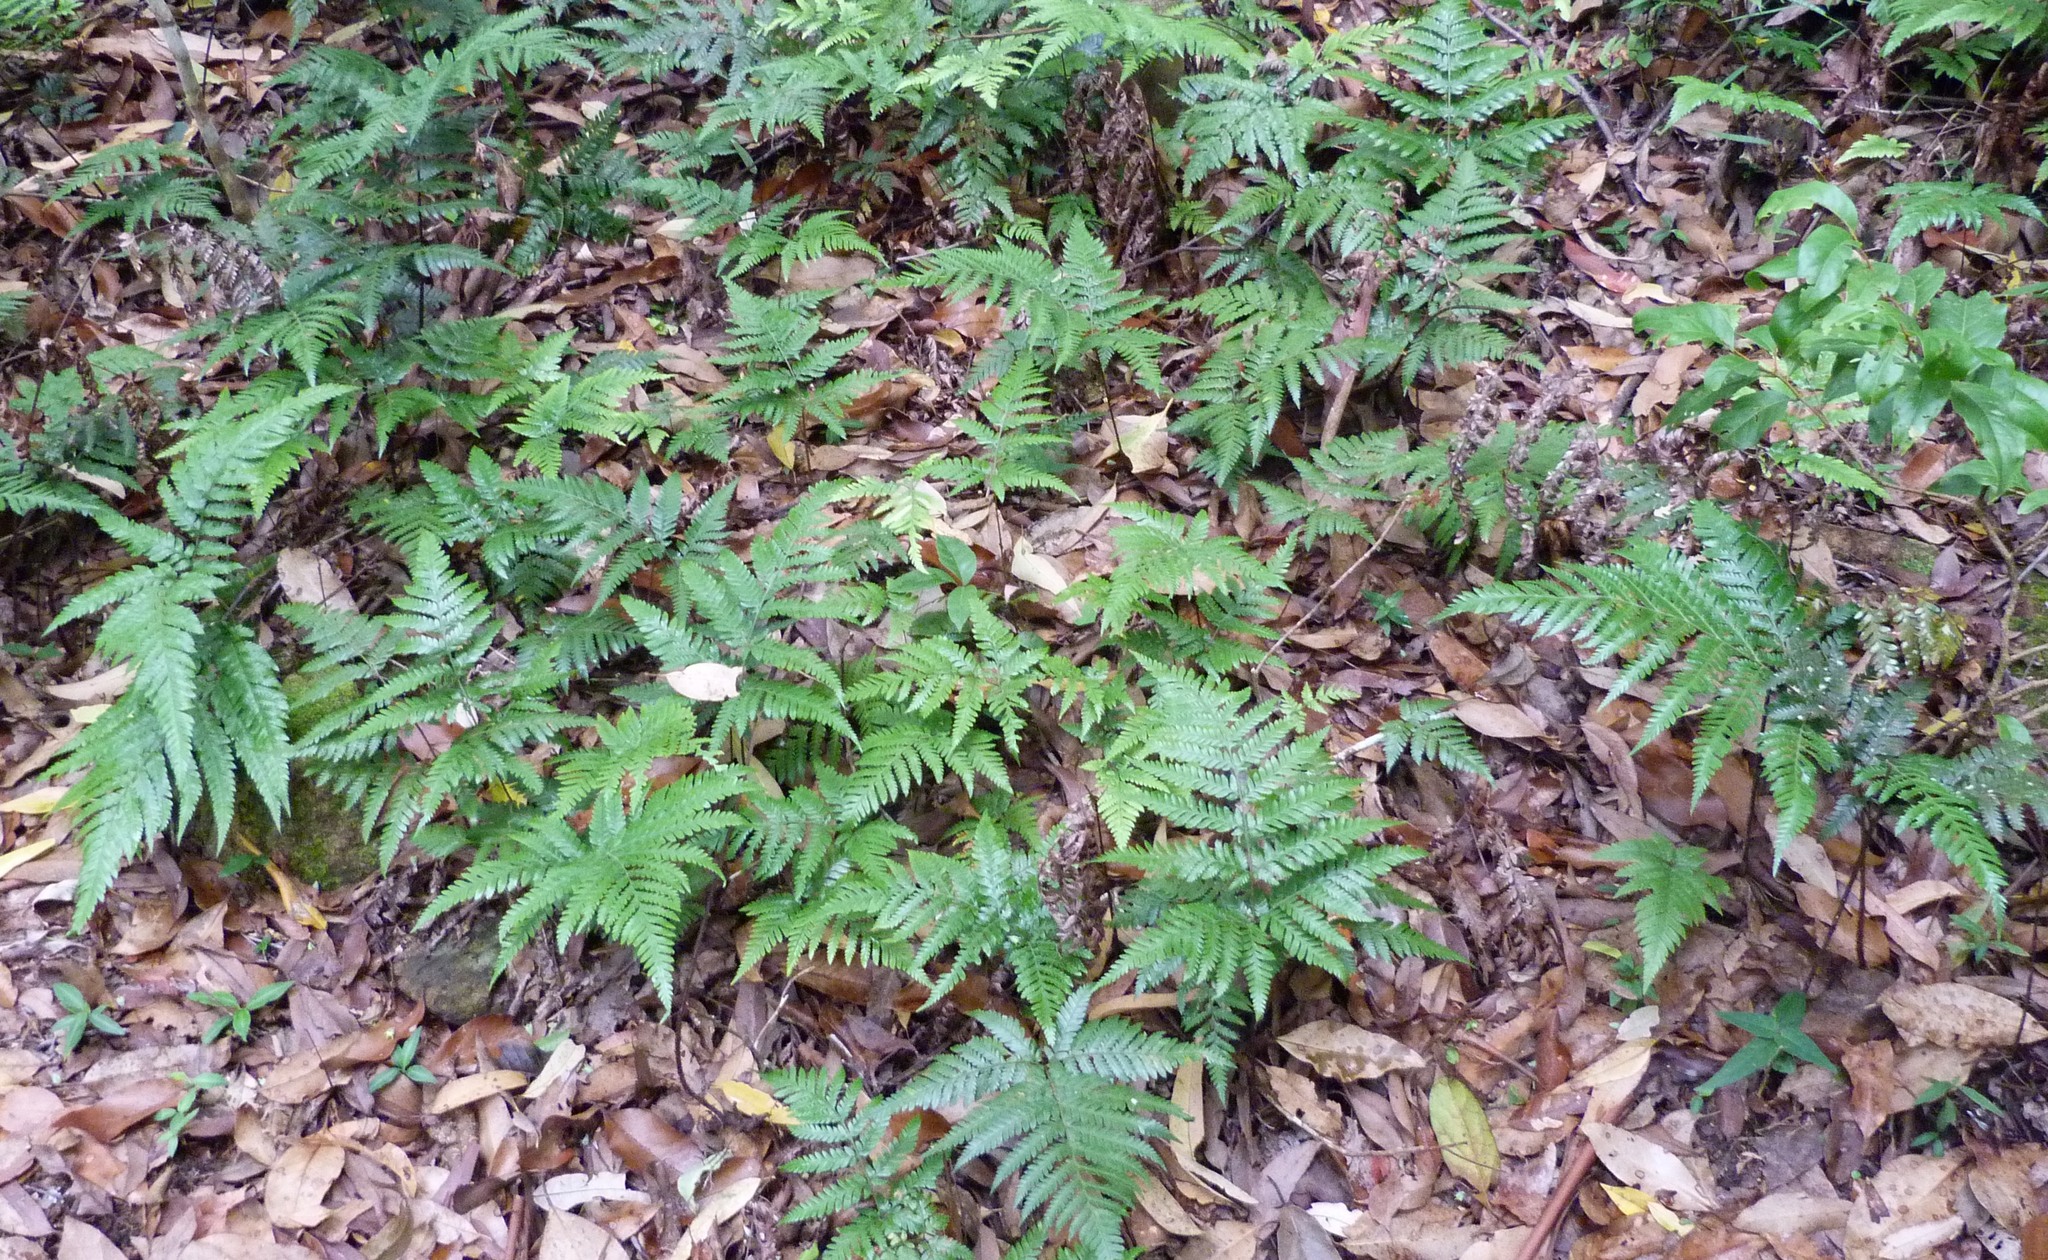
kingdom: Plantae
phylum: Tracheophyta
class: Polypodiopsida
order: Polypodiales
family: Dryopteridaceae
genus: Lastreopsis
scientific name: Lastreopsis marginans
